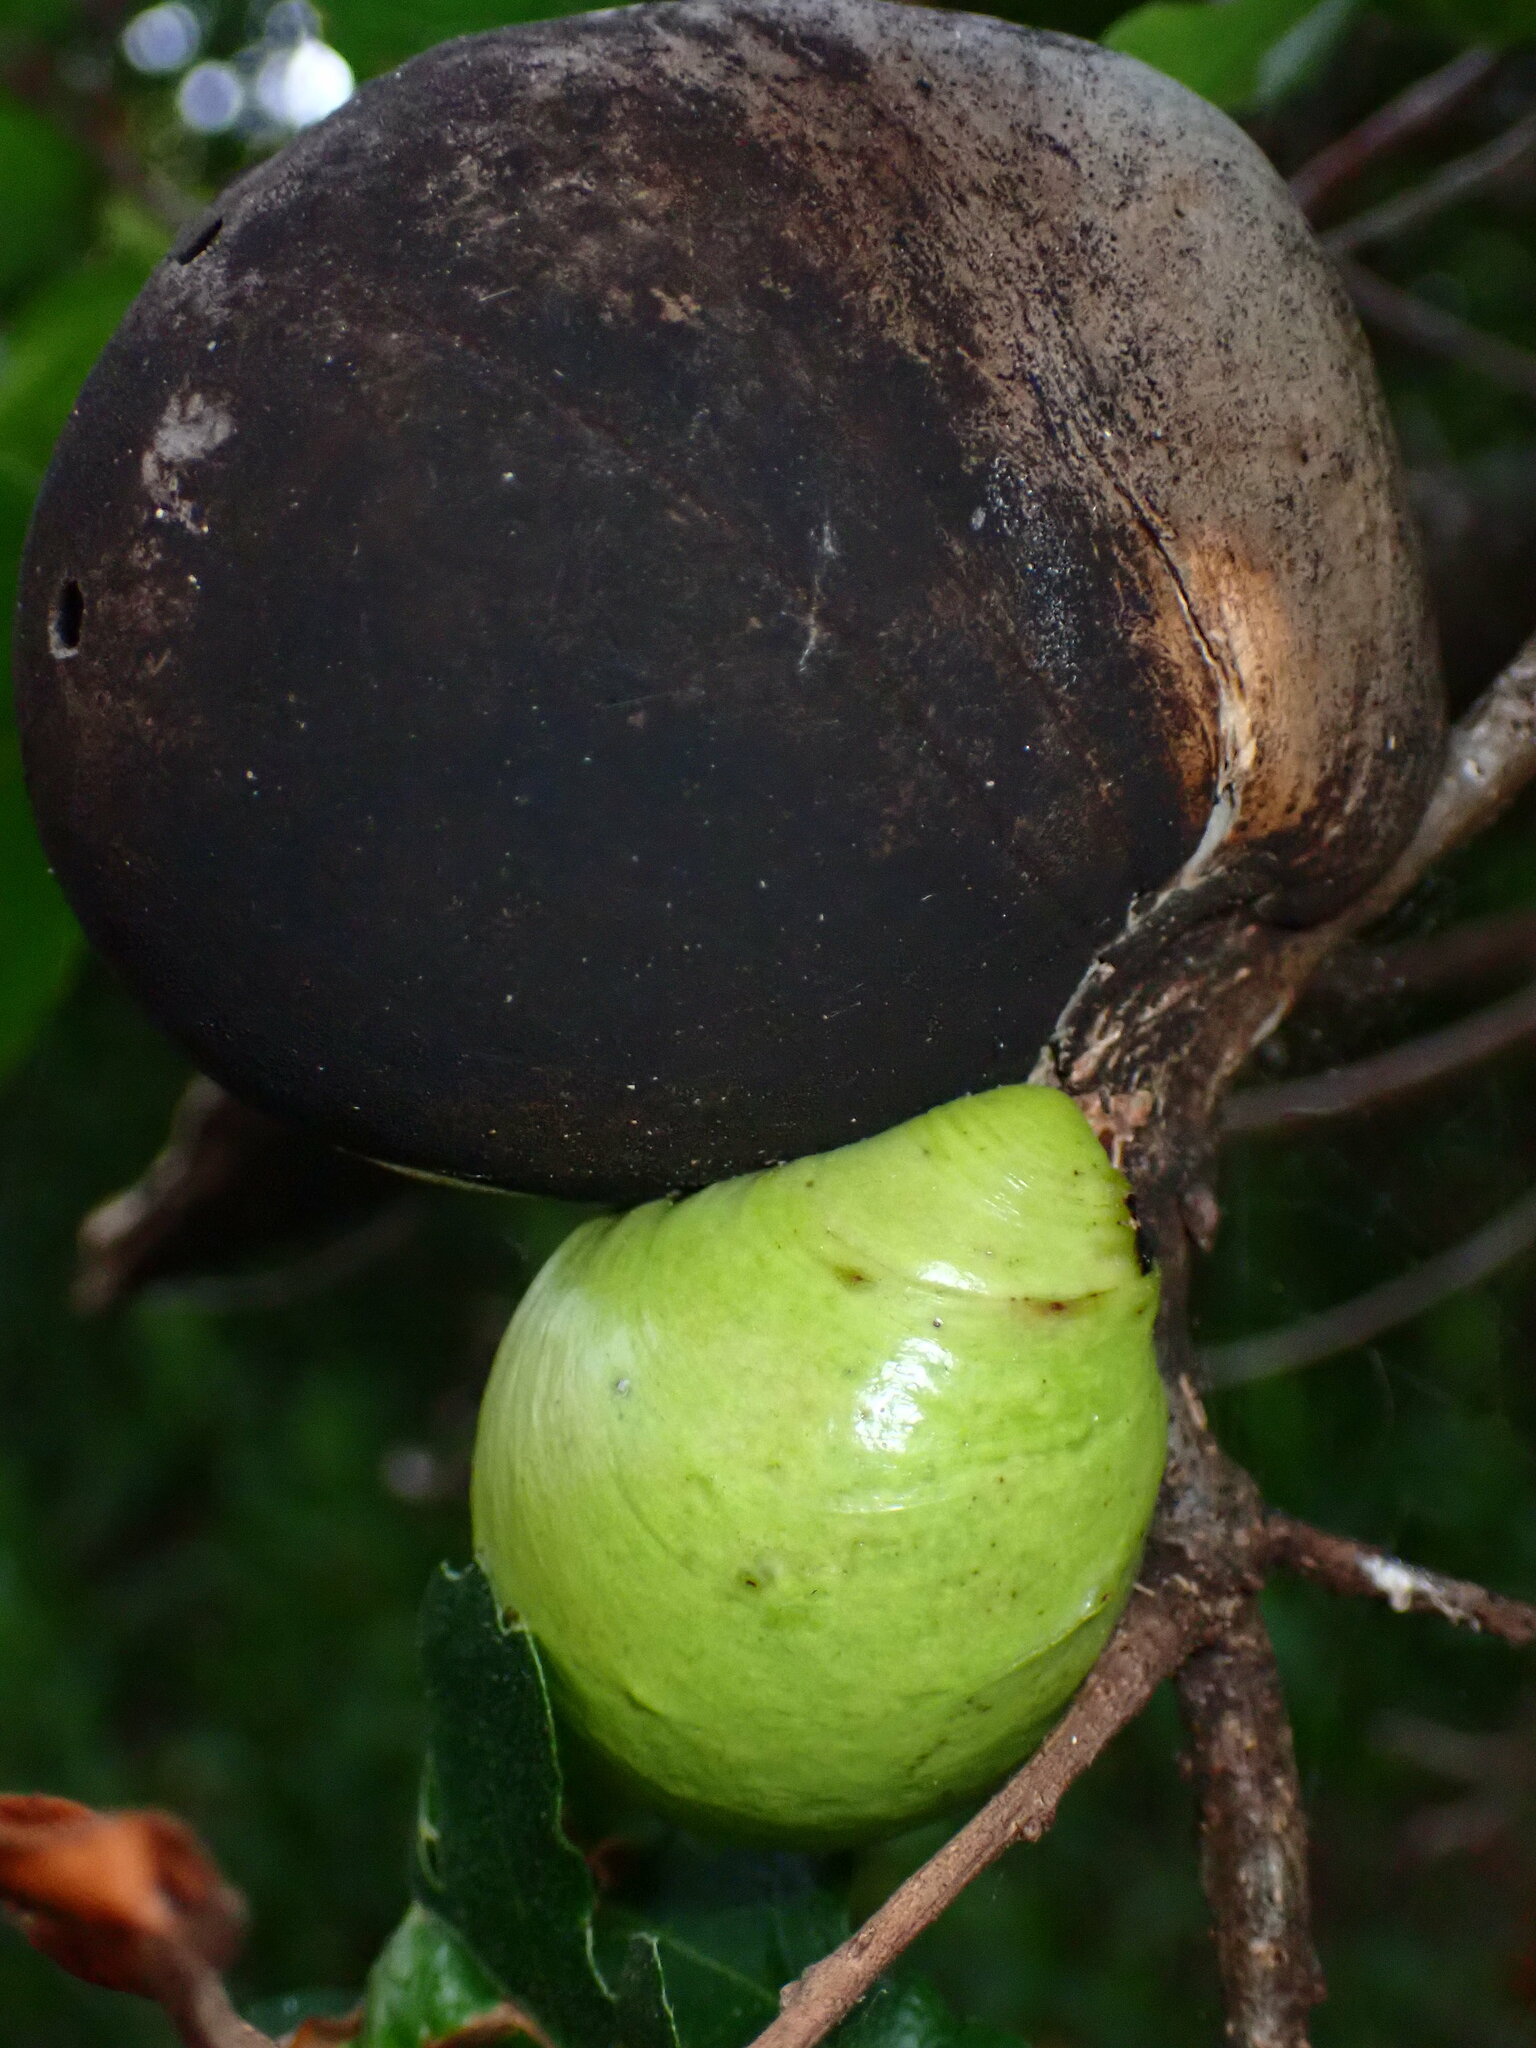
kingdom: Animalia
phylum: Arthropoda
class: Insecta
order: Hymenoptera
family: Cynipidae
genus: Andricus
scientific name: Andricus quercuscalifornicus
